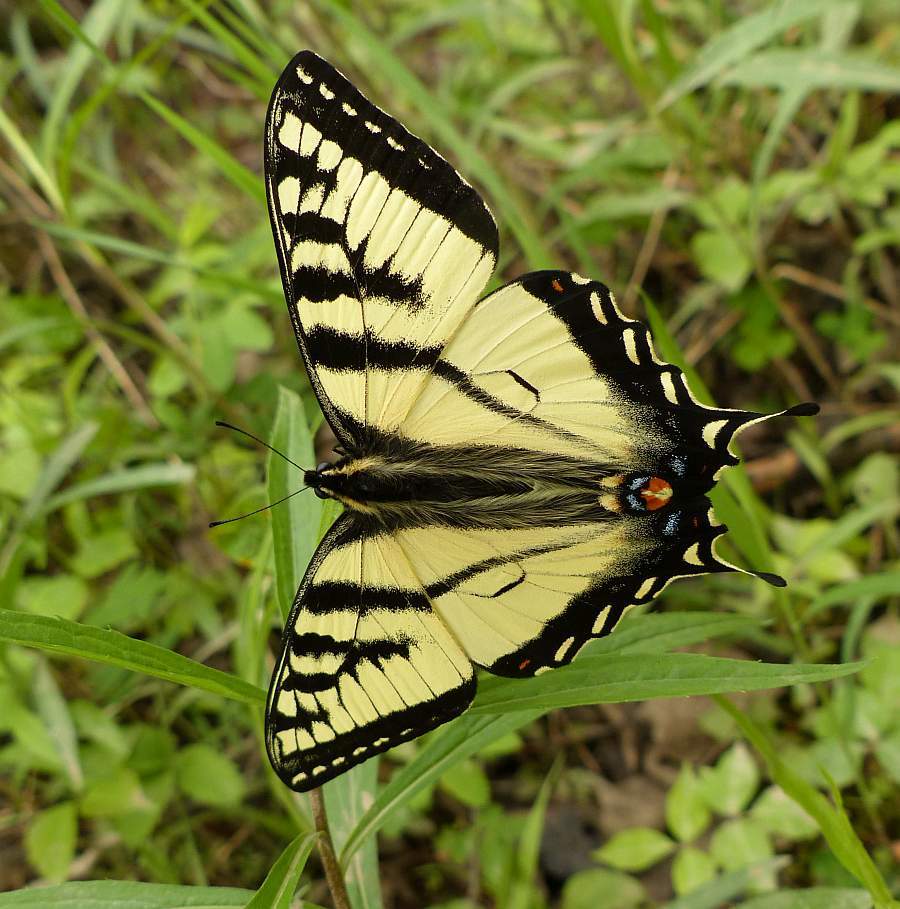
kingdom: Animalia
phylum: Arthropoda
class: Insecta
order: Lepidoptera
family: Papilionidae
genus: Papilio
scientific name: Papilio canadensis
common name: Canadian tiger swallowtail
